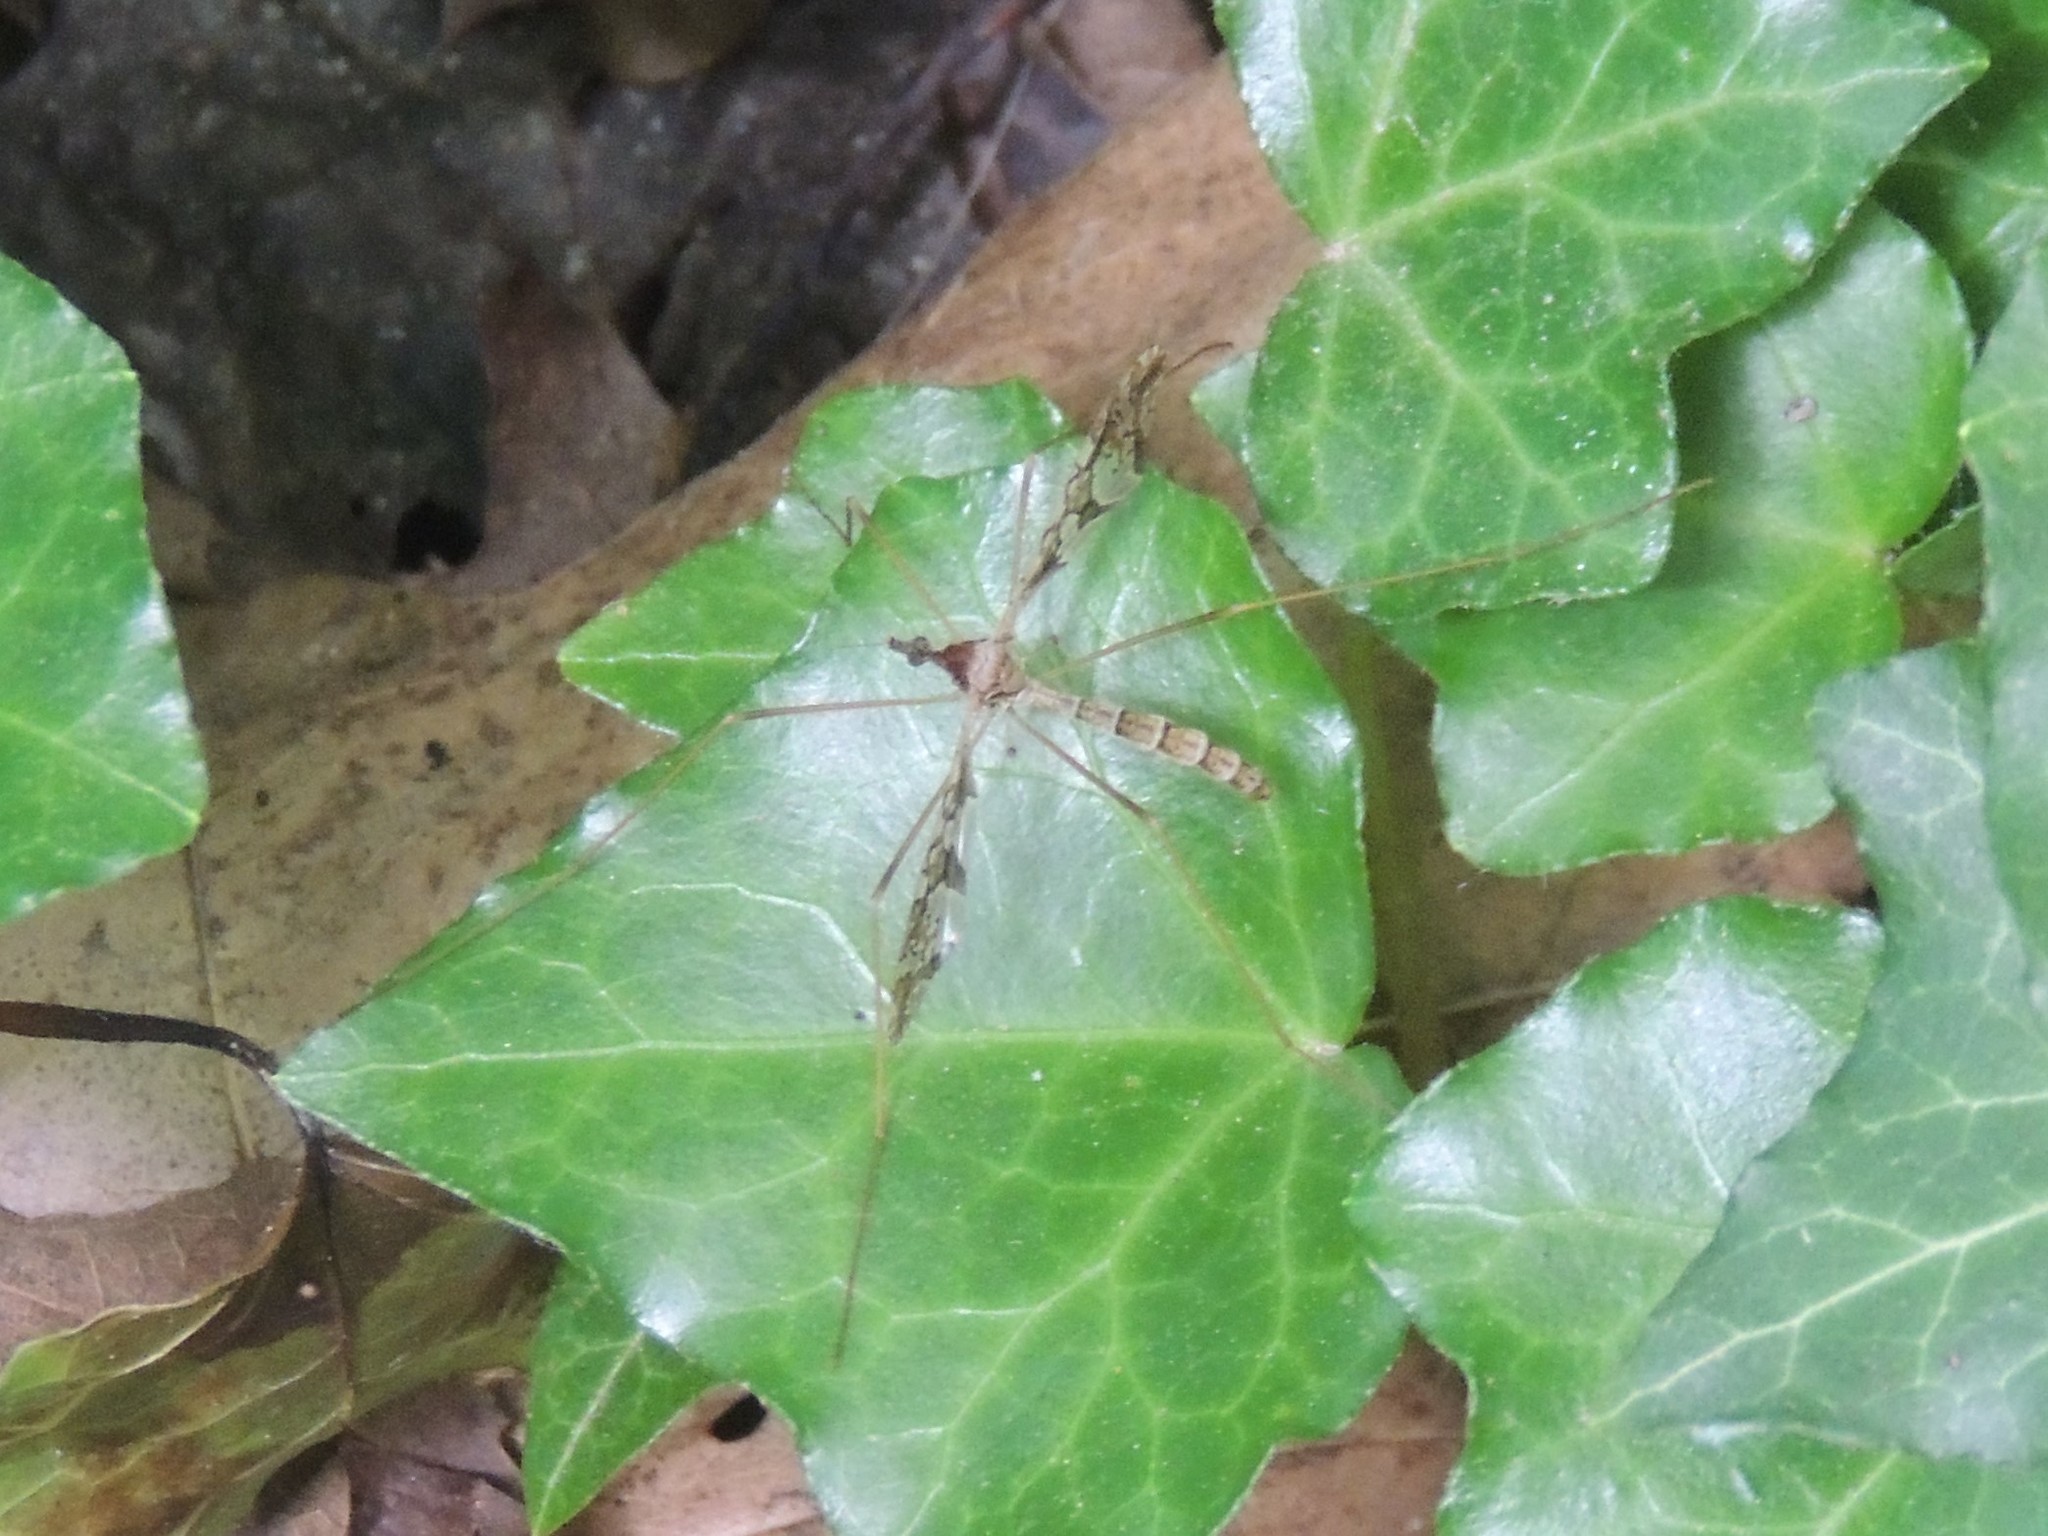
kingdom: Animalia
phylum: Arthropoda
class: Insecta
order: Diptera
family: Limoniidae
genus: Epiphragma
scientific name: Epiphragma solatrix
